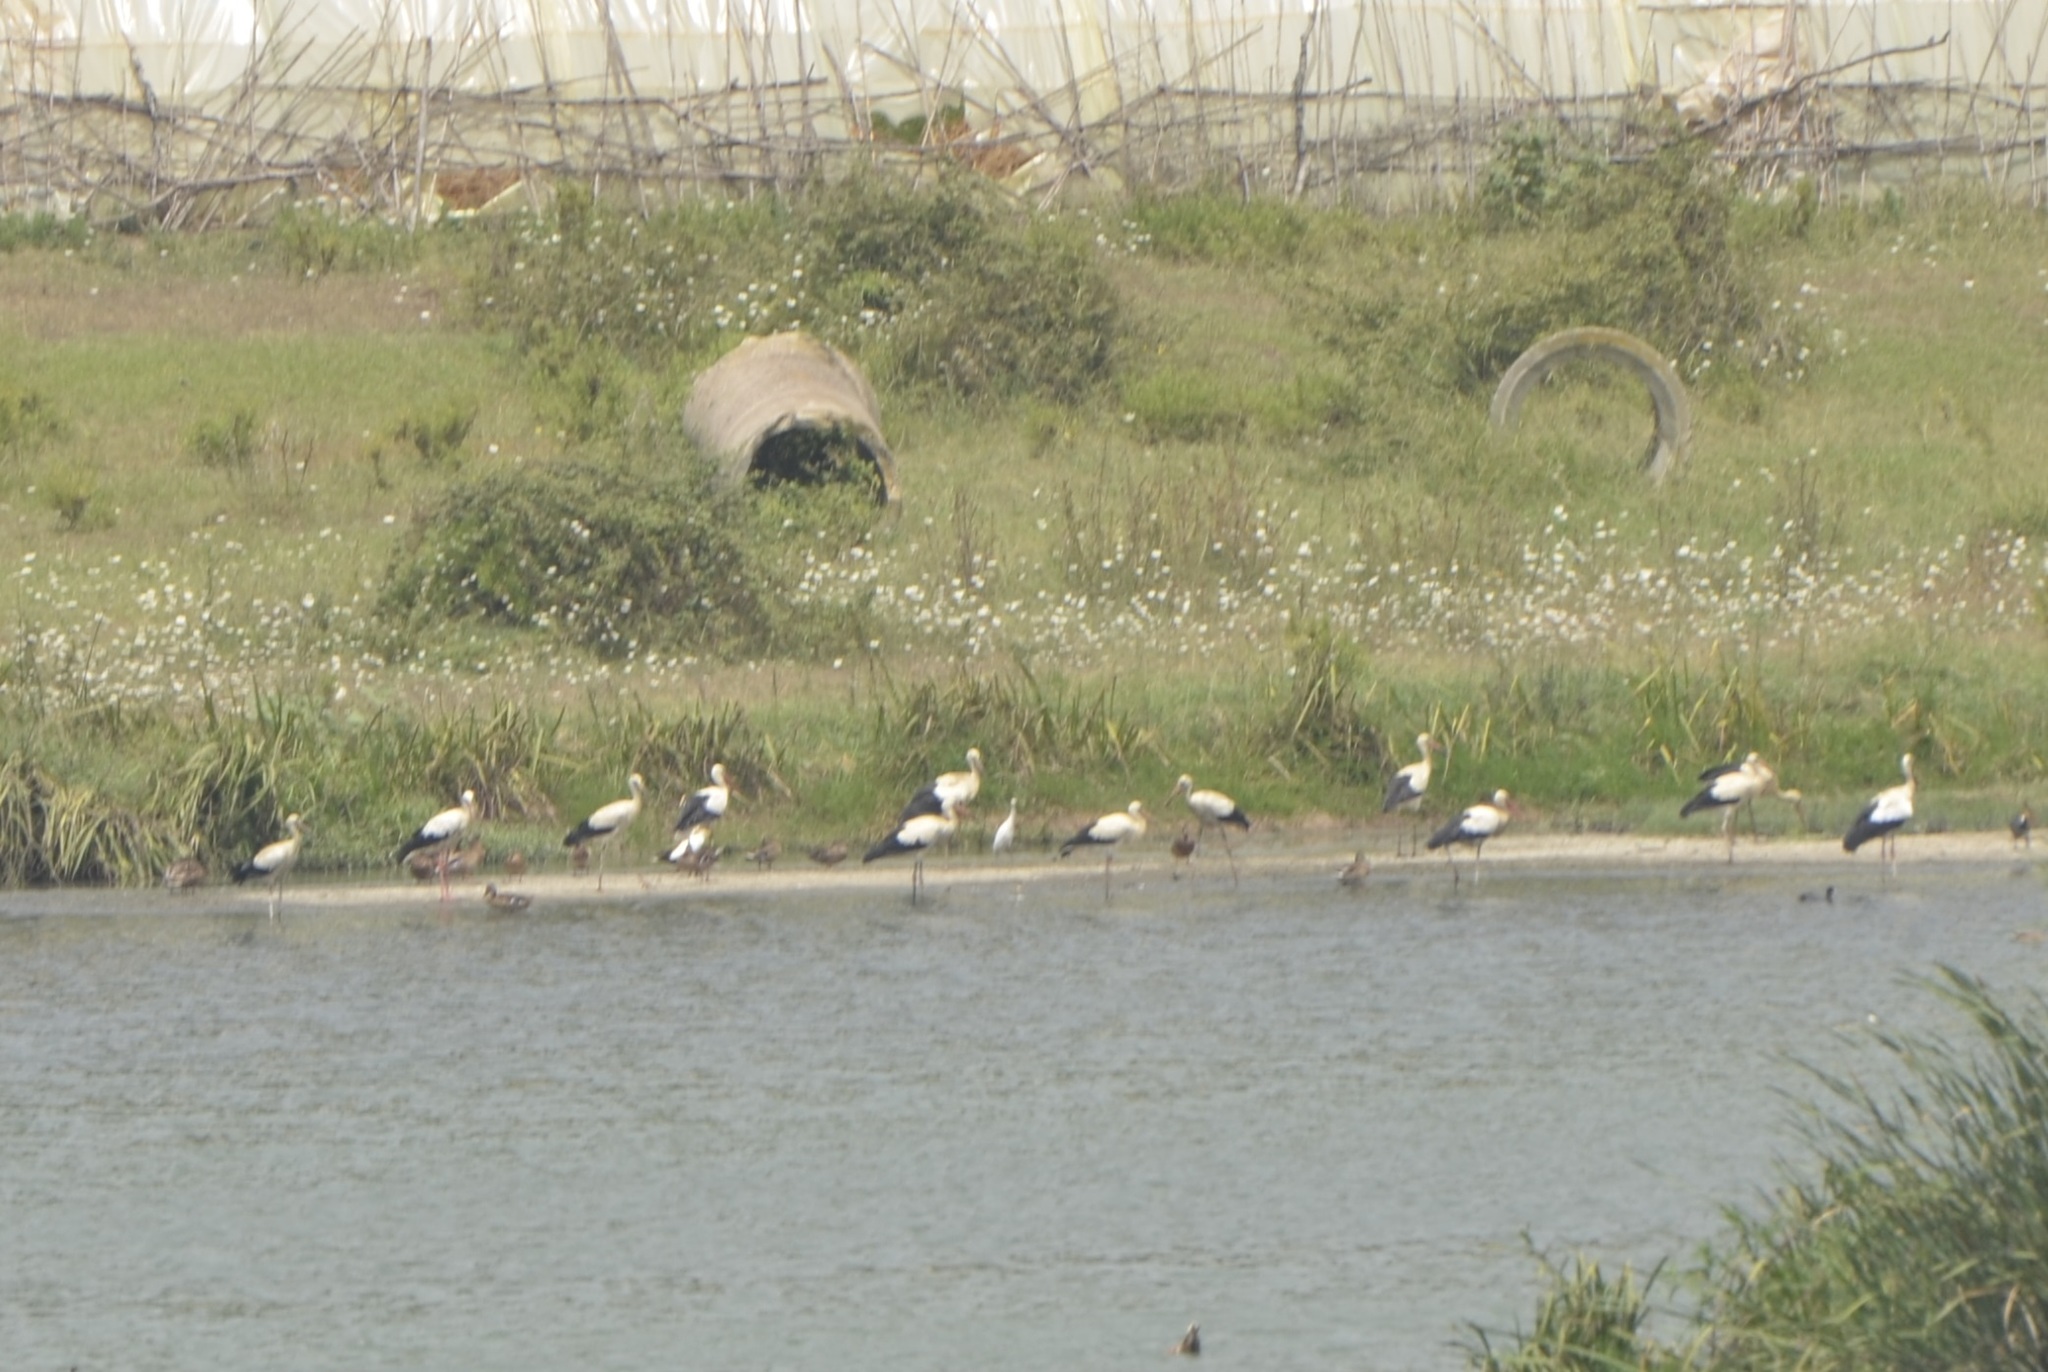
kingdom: Animalia
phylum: Chordata
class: Aves
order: Ciconiiformes
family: Ciconiidae
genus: Ciconia
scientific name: Ciconia ciconia
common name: White stork
